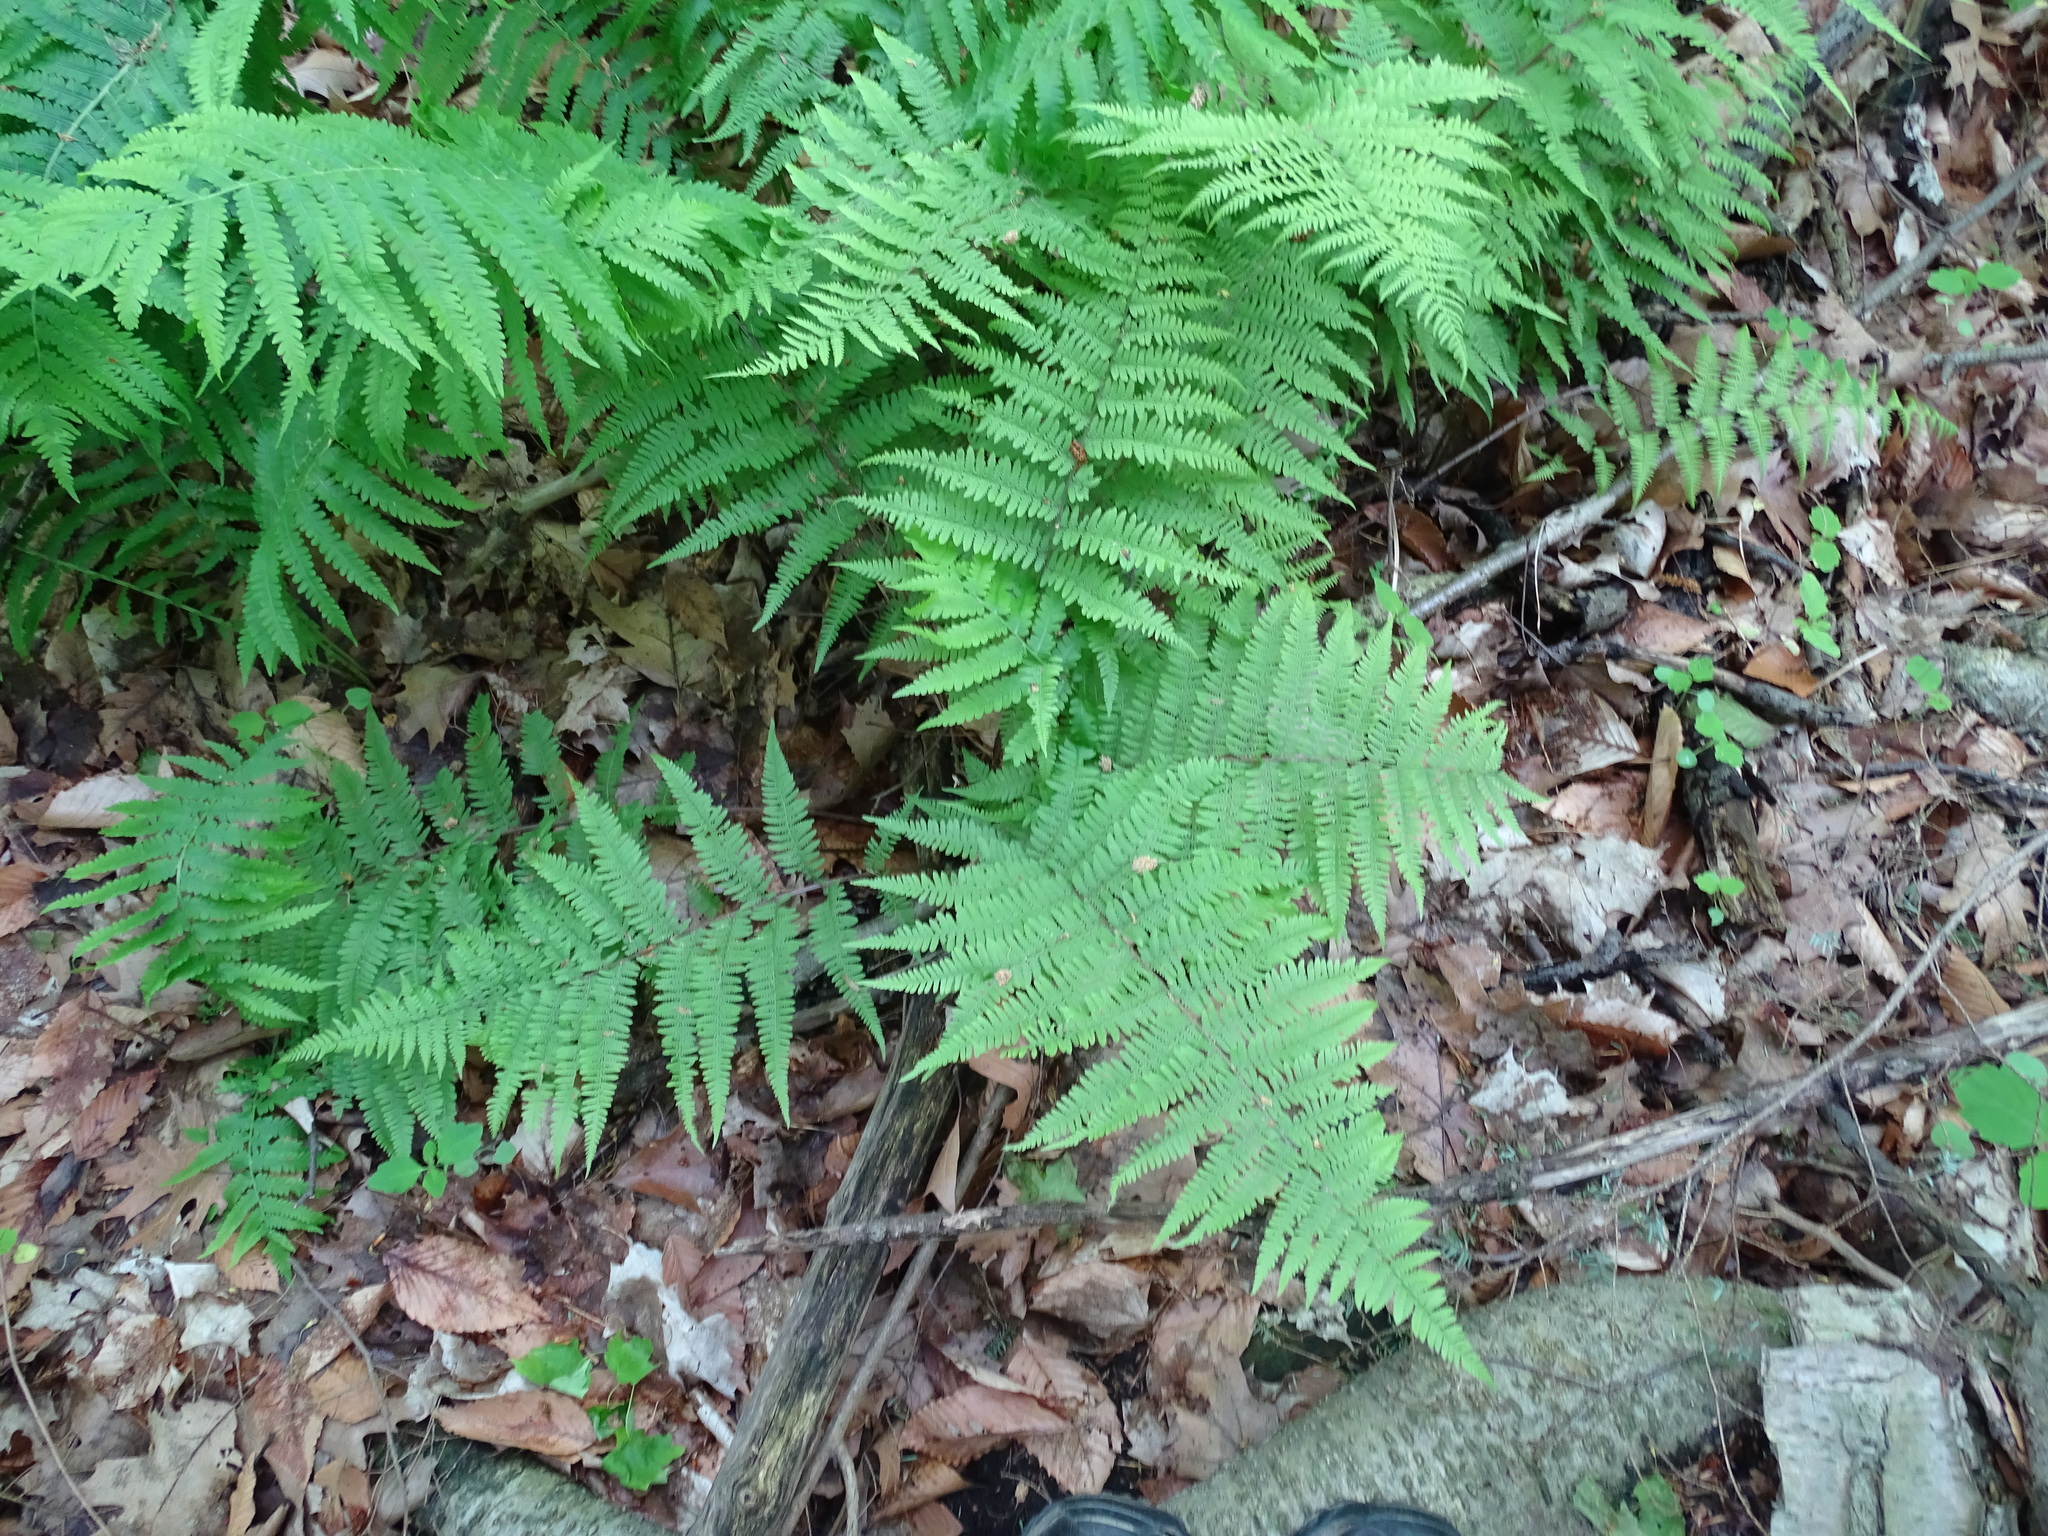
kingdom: Plantae
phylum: Tracheophyta
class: Polypodiopsida
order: Polypodiales
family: Athyriaceae
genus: Athyrium
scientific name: Athyrium angustum
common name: Northern lady fern
